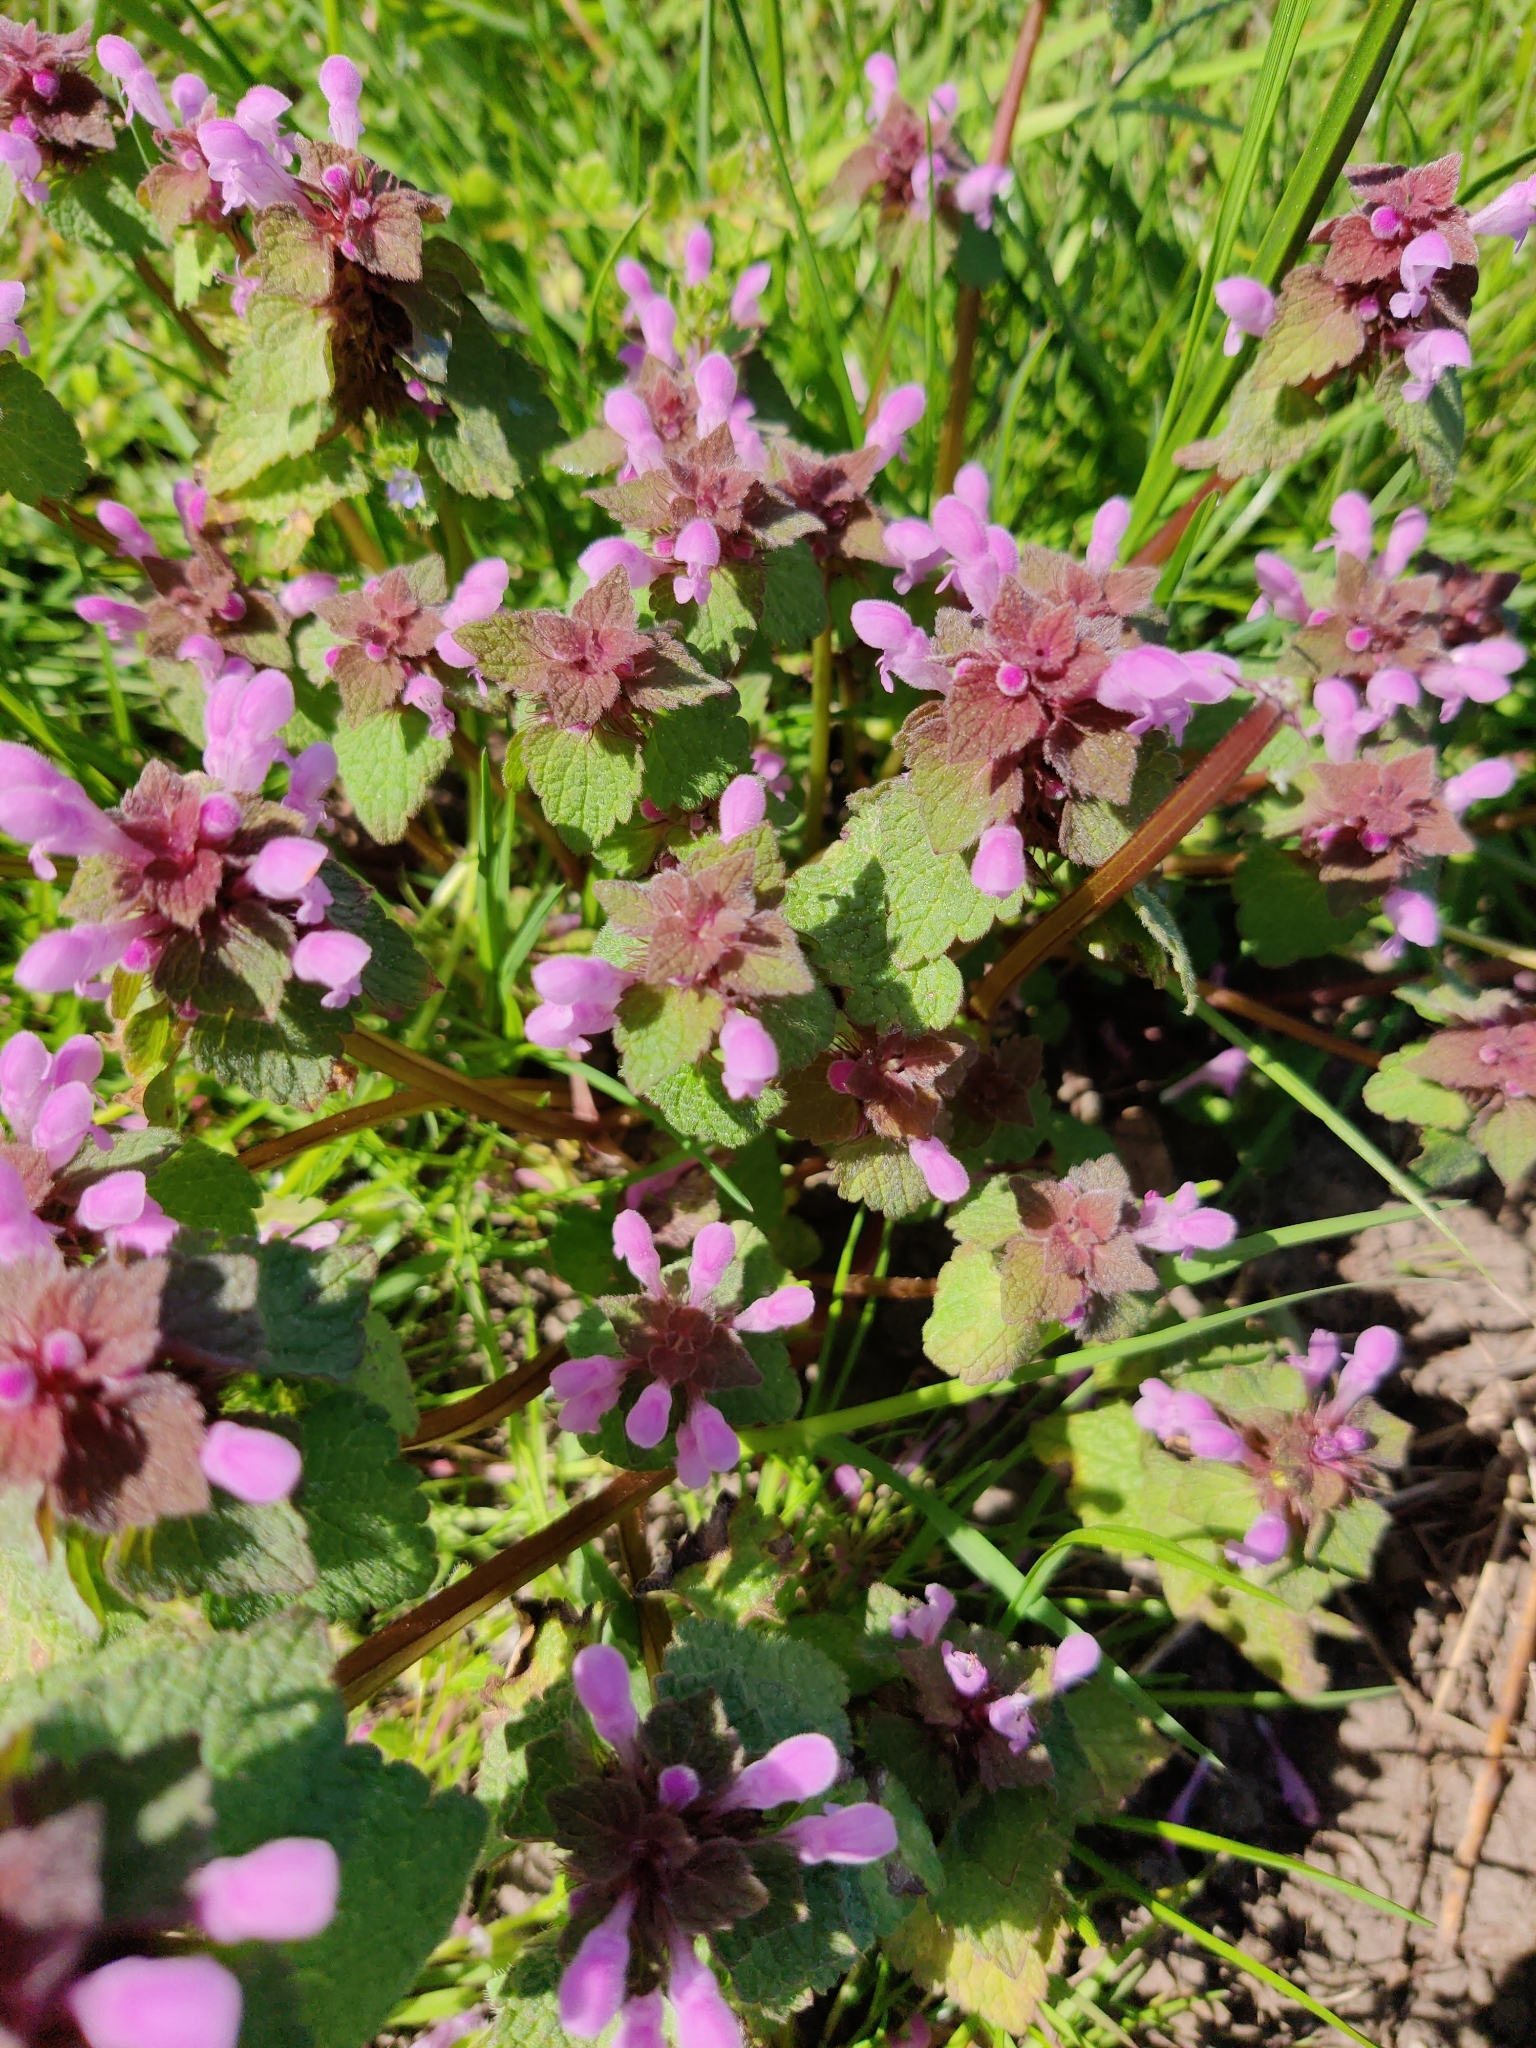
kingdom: Plantae
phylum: Tracheophyta
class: Magnoliopsida
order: Lamiales
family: Lamiaceae
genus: Lamium
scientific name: Lamium purpureum
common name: Red dead-nettle
